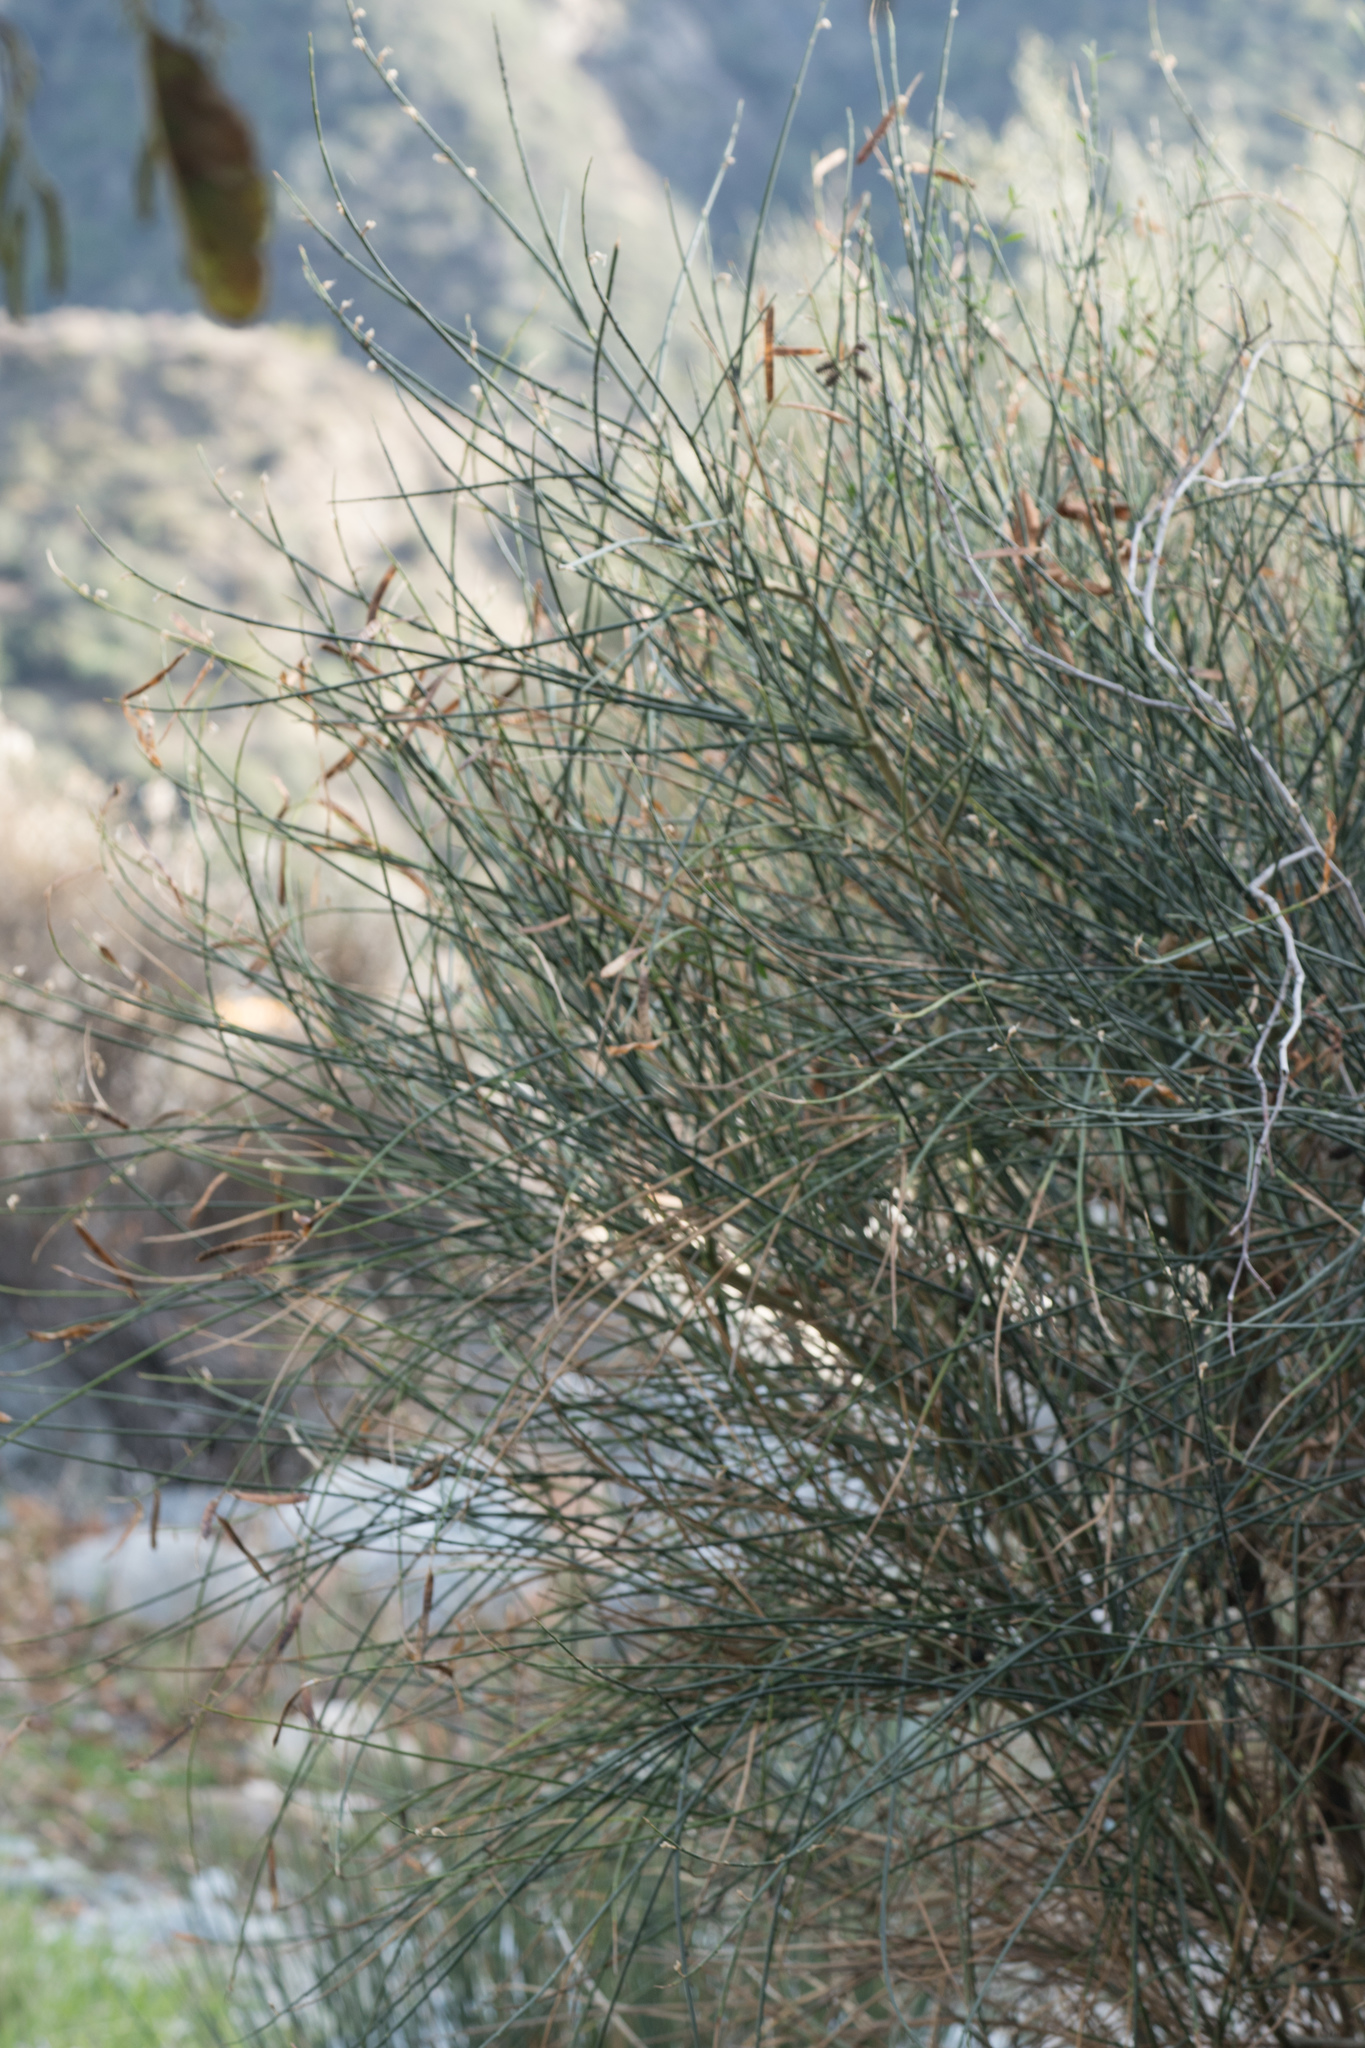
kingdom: Plantae
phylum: Tracheophyta
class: Magnoliopsida
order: Fabales
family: Fabaceae
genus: Spartium
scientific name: Spartium junceum
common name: Spanish broom
